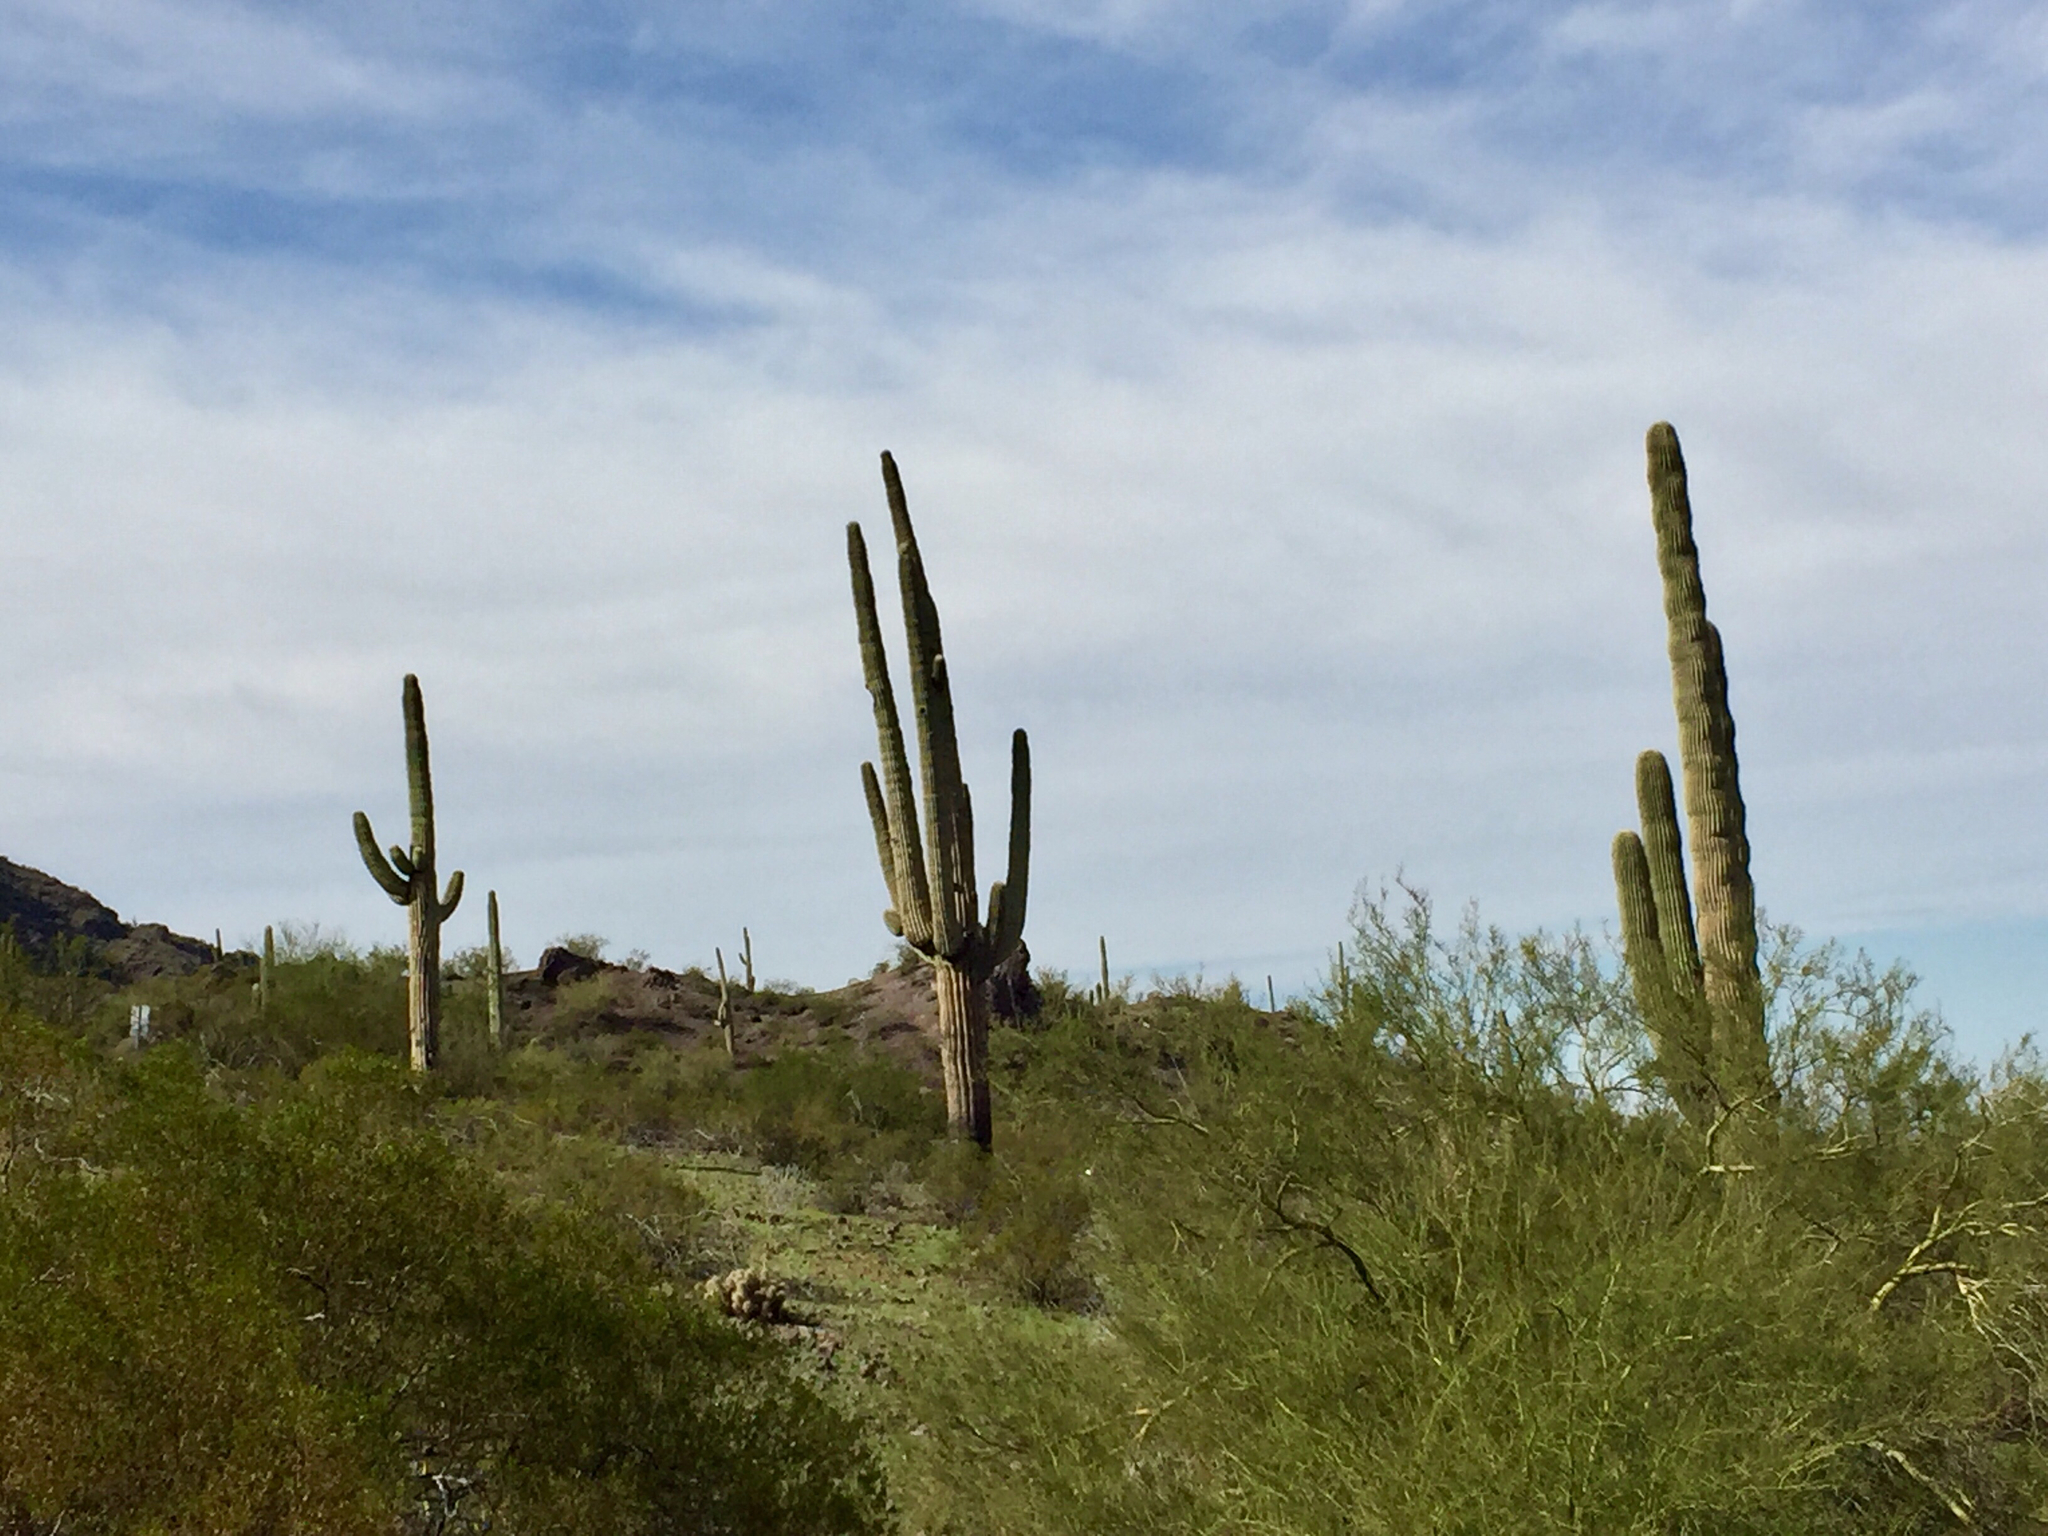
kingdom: Plantae
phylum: Tracheophyta
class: Magnoliopsida
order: Caryophyllales
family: Cactaceae
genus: Carnegiea
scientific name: Carnegiea gigantea
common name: Saguaro
